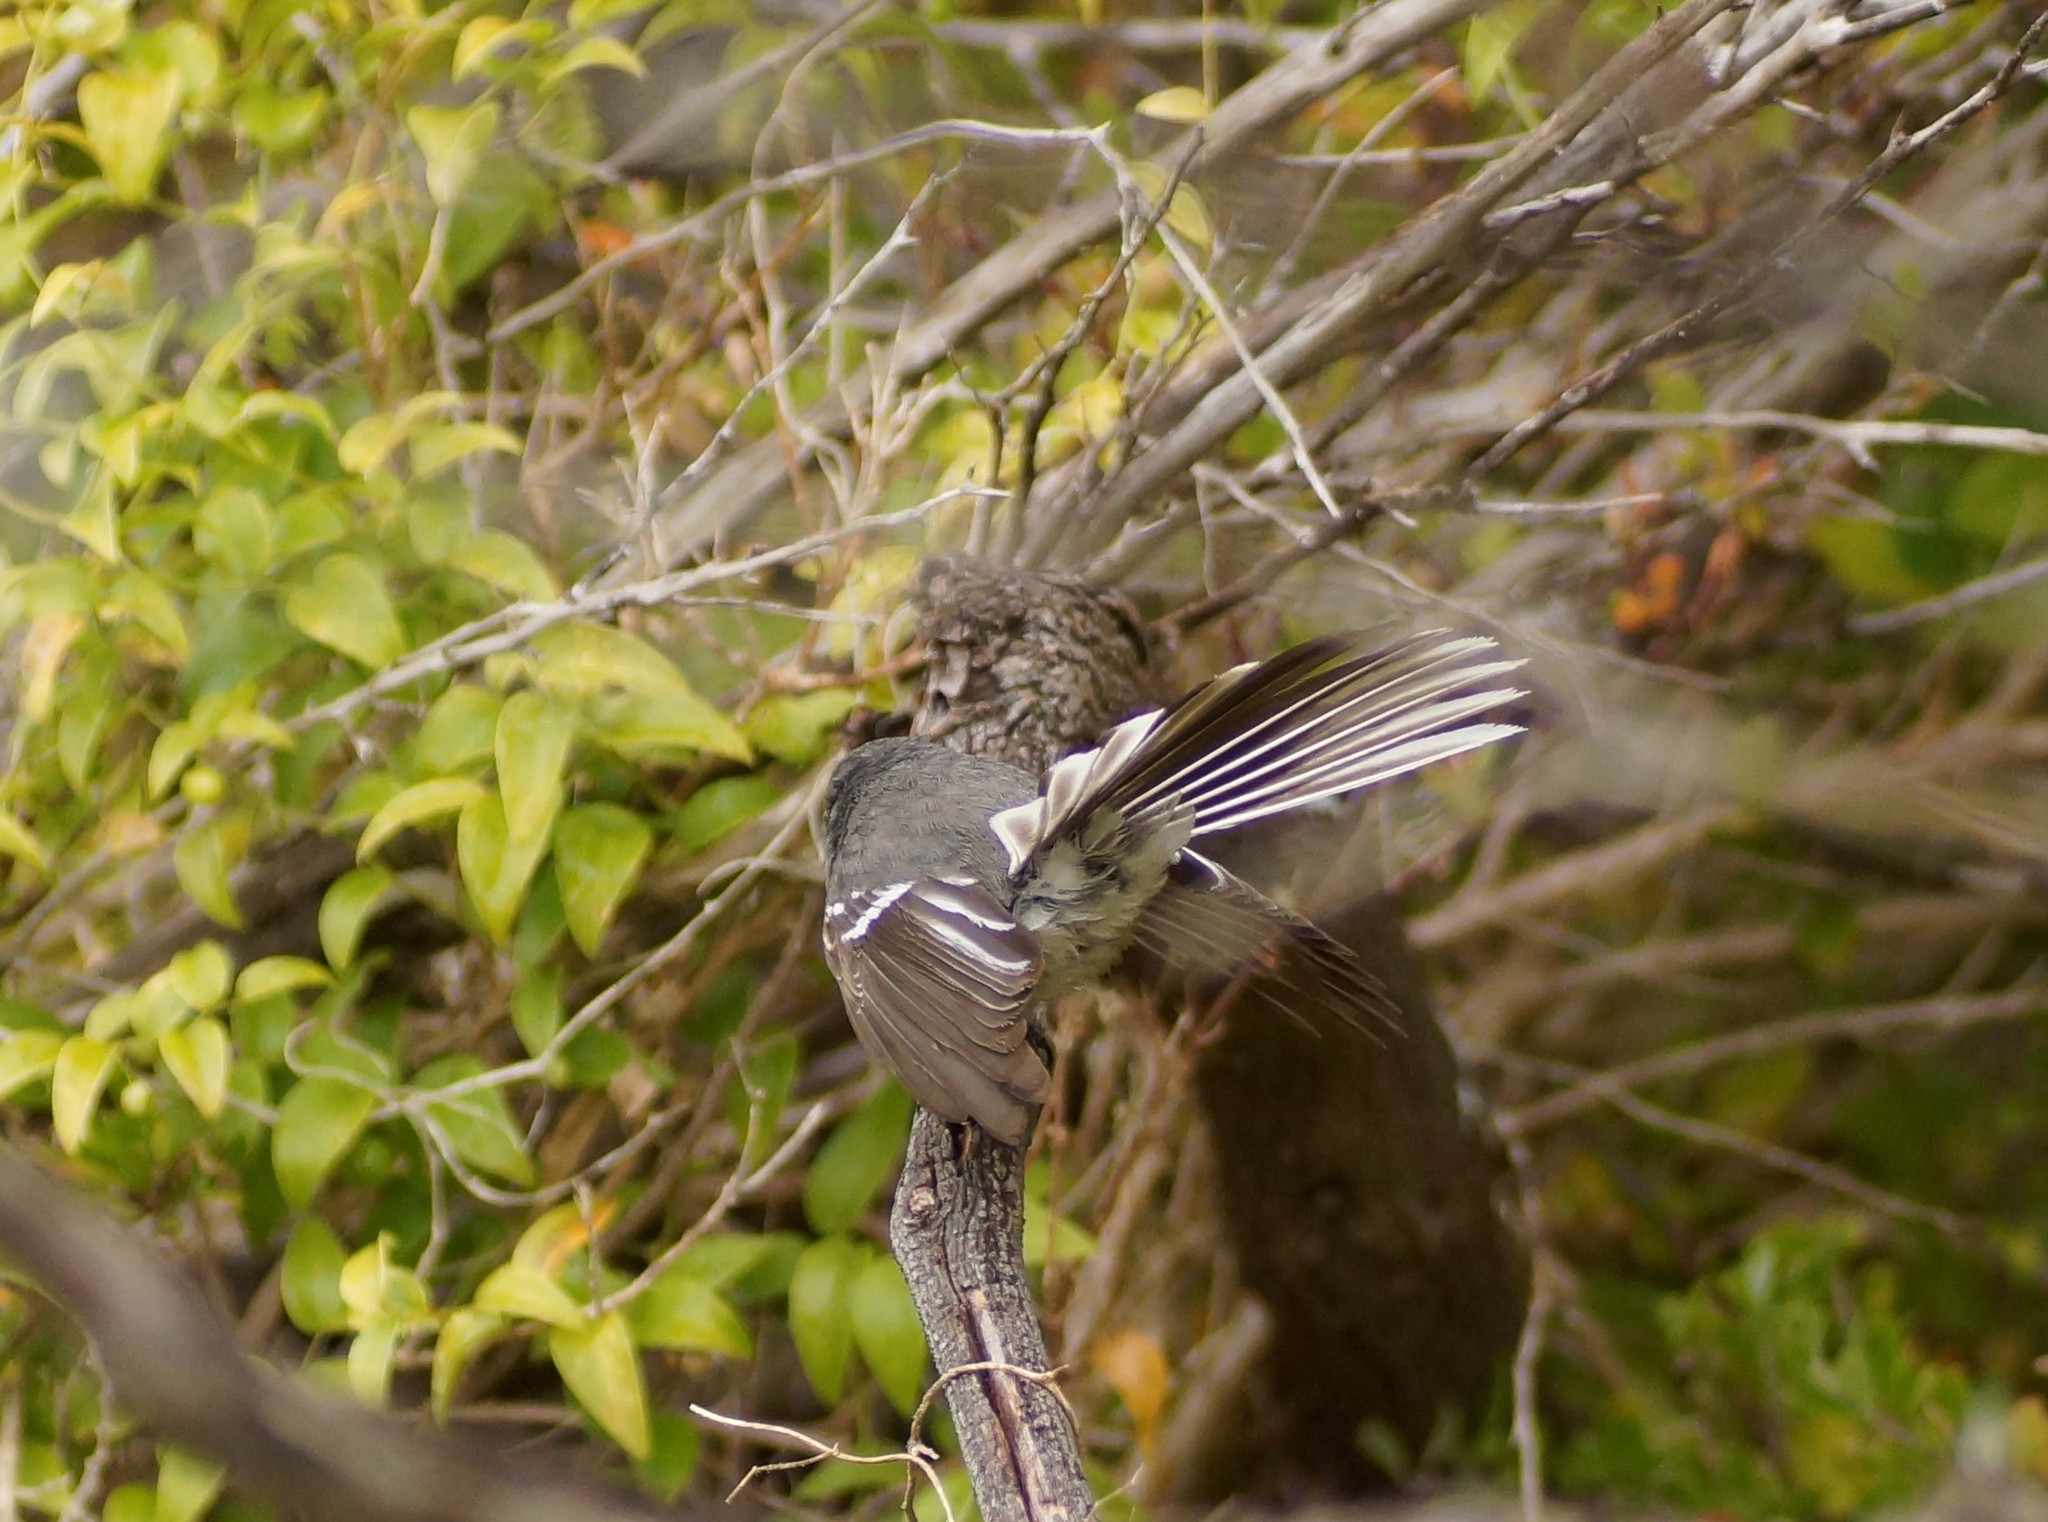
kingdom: Animalia
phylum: Chordata
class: Aves
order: Passeriformes
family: Rhipiduridae
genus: Rhipidura
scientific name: Rhipidura albiscapa
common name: Grey fantail
